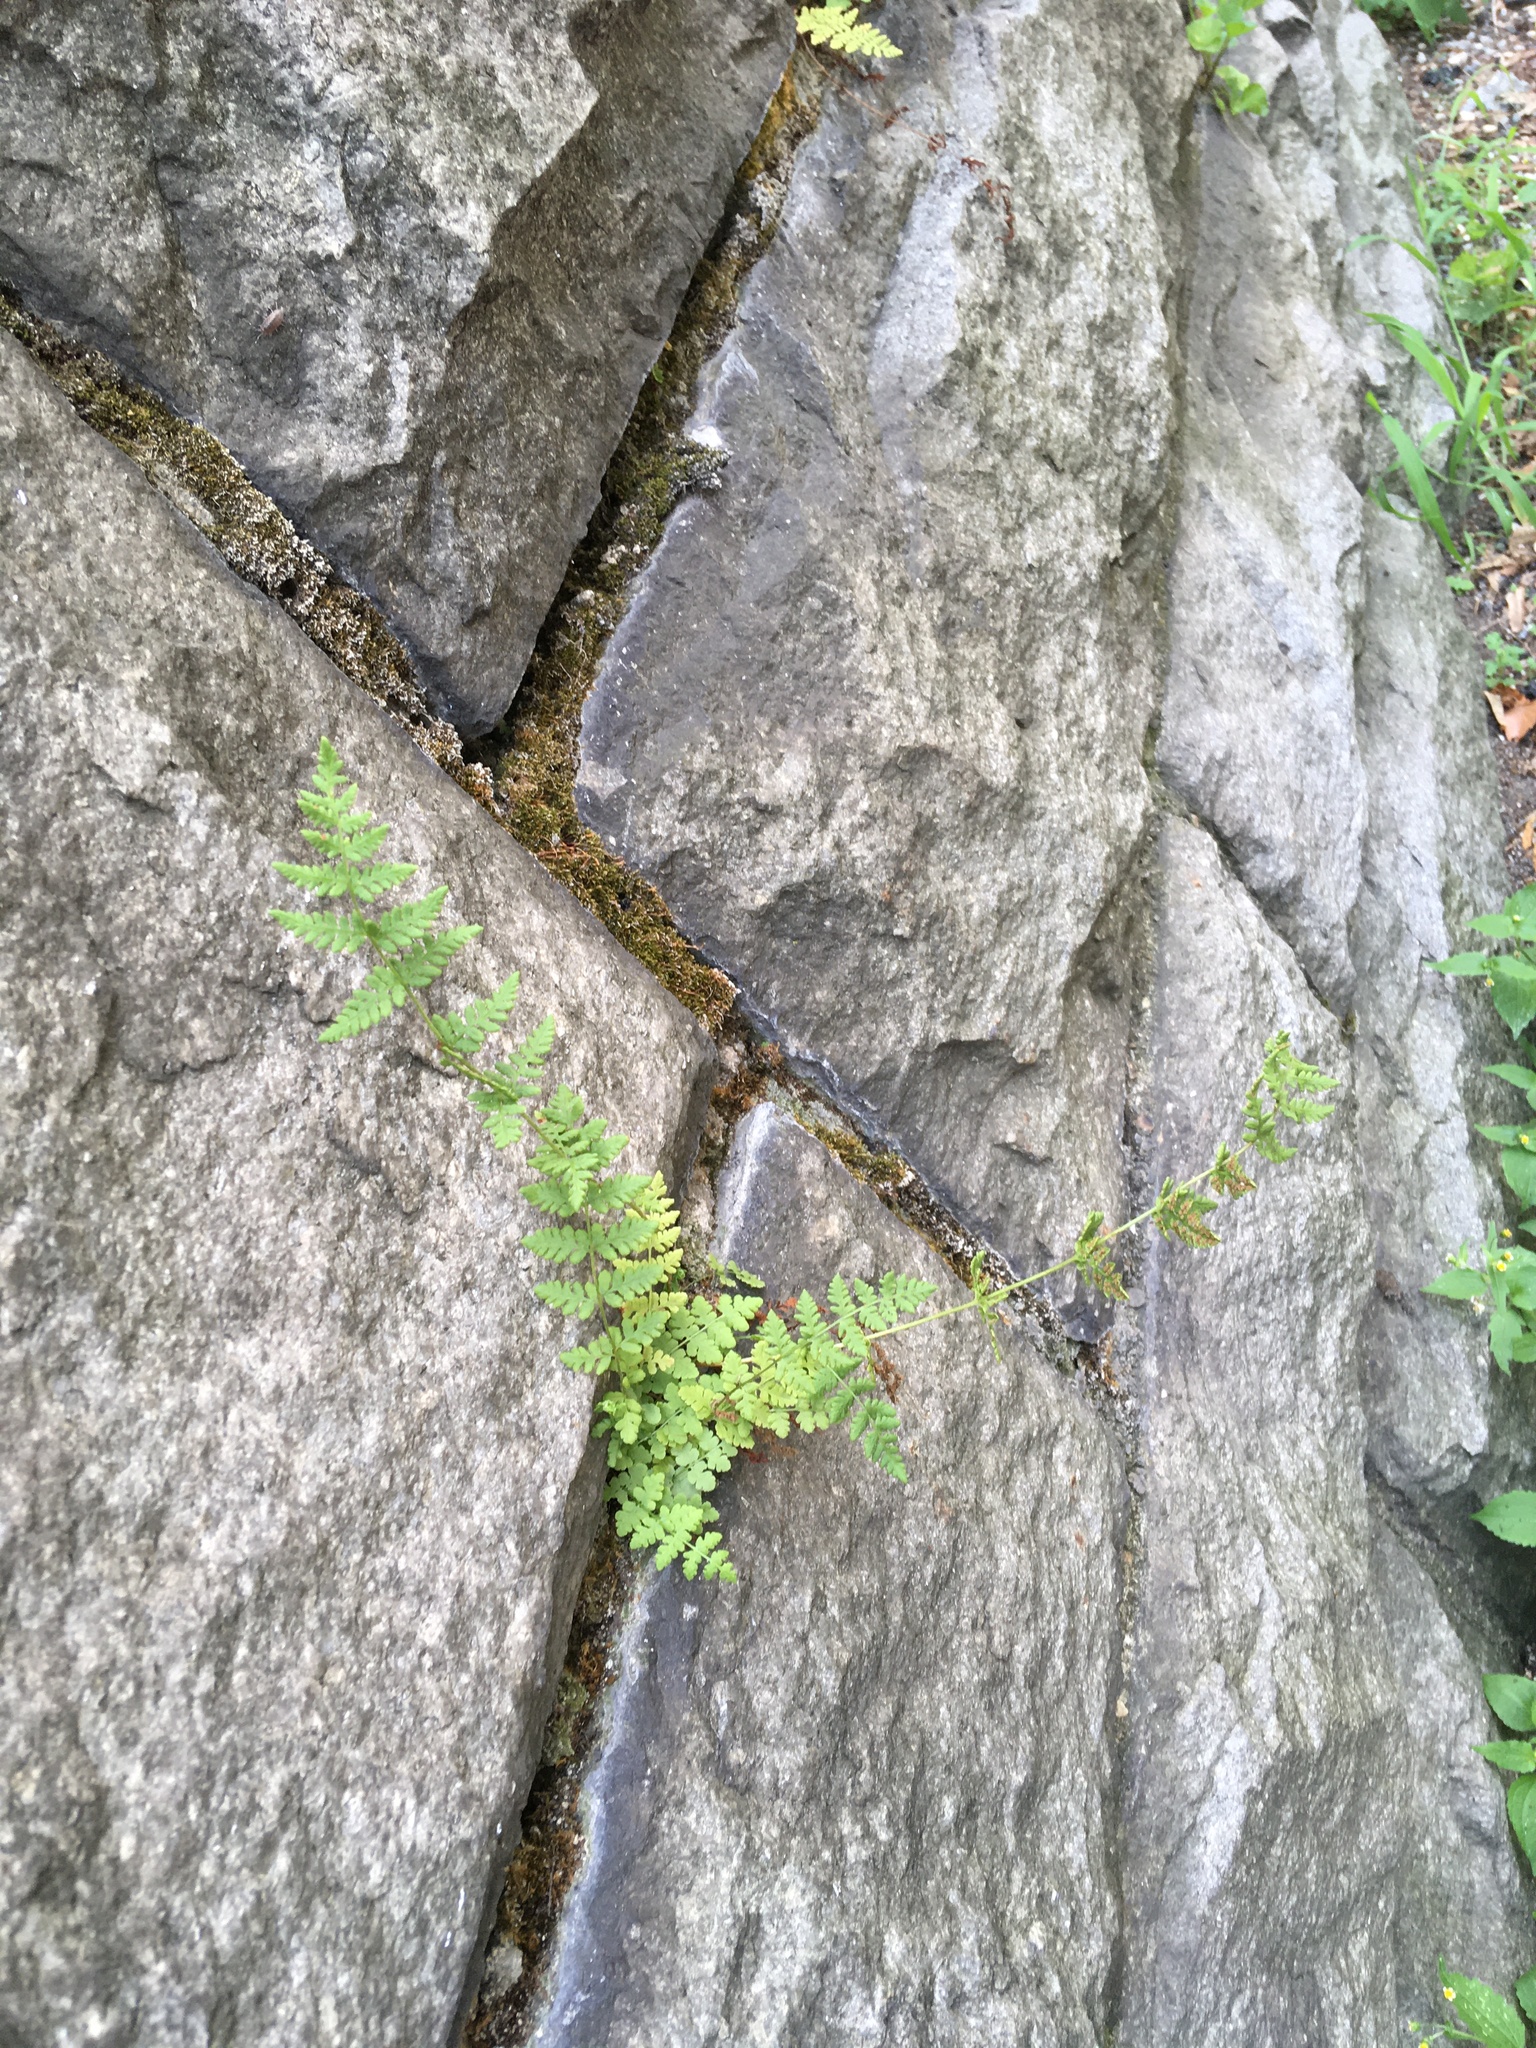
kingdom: Plantae
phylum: Tracheophyta
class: Polypodiopsida
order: Polypodiales
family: Woodsiaceae
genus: Physematium
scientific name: Physematium obtusum
